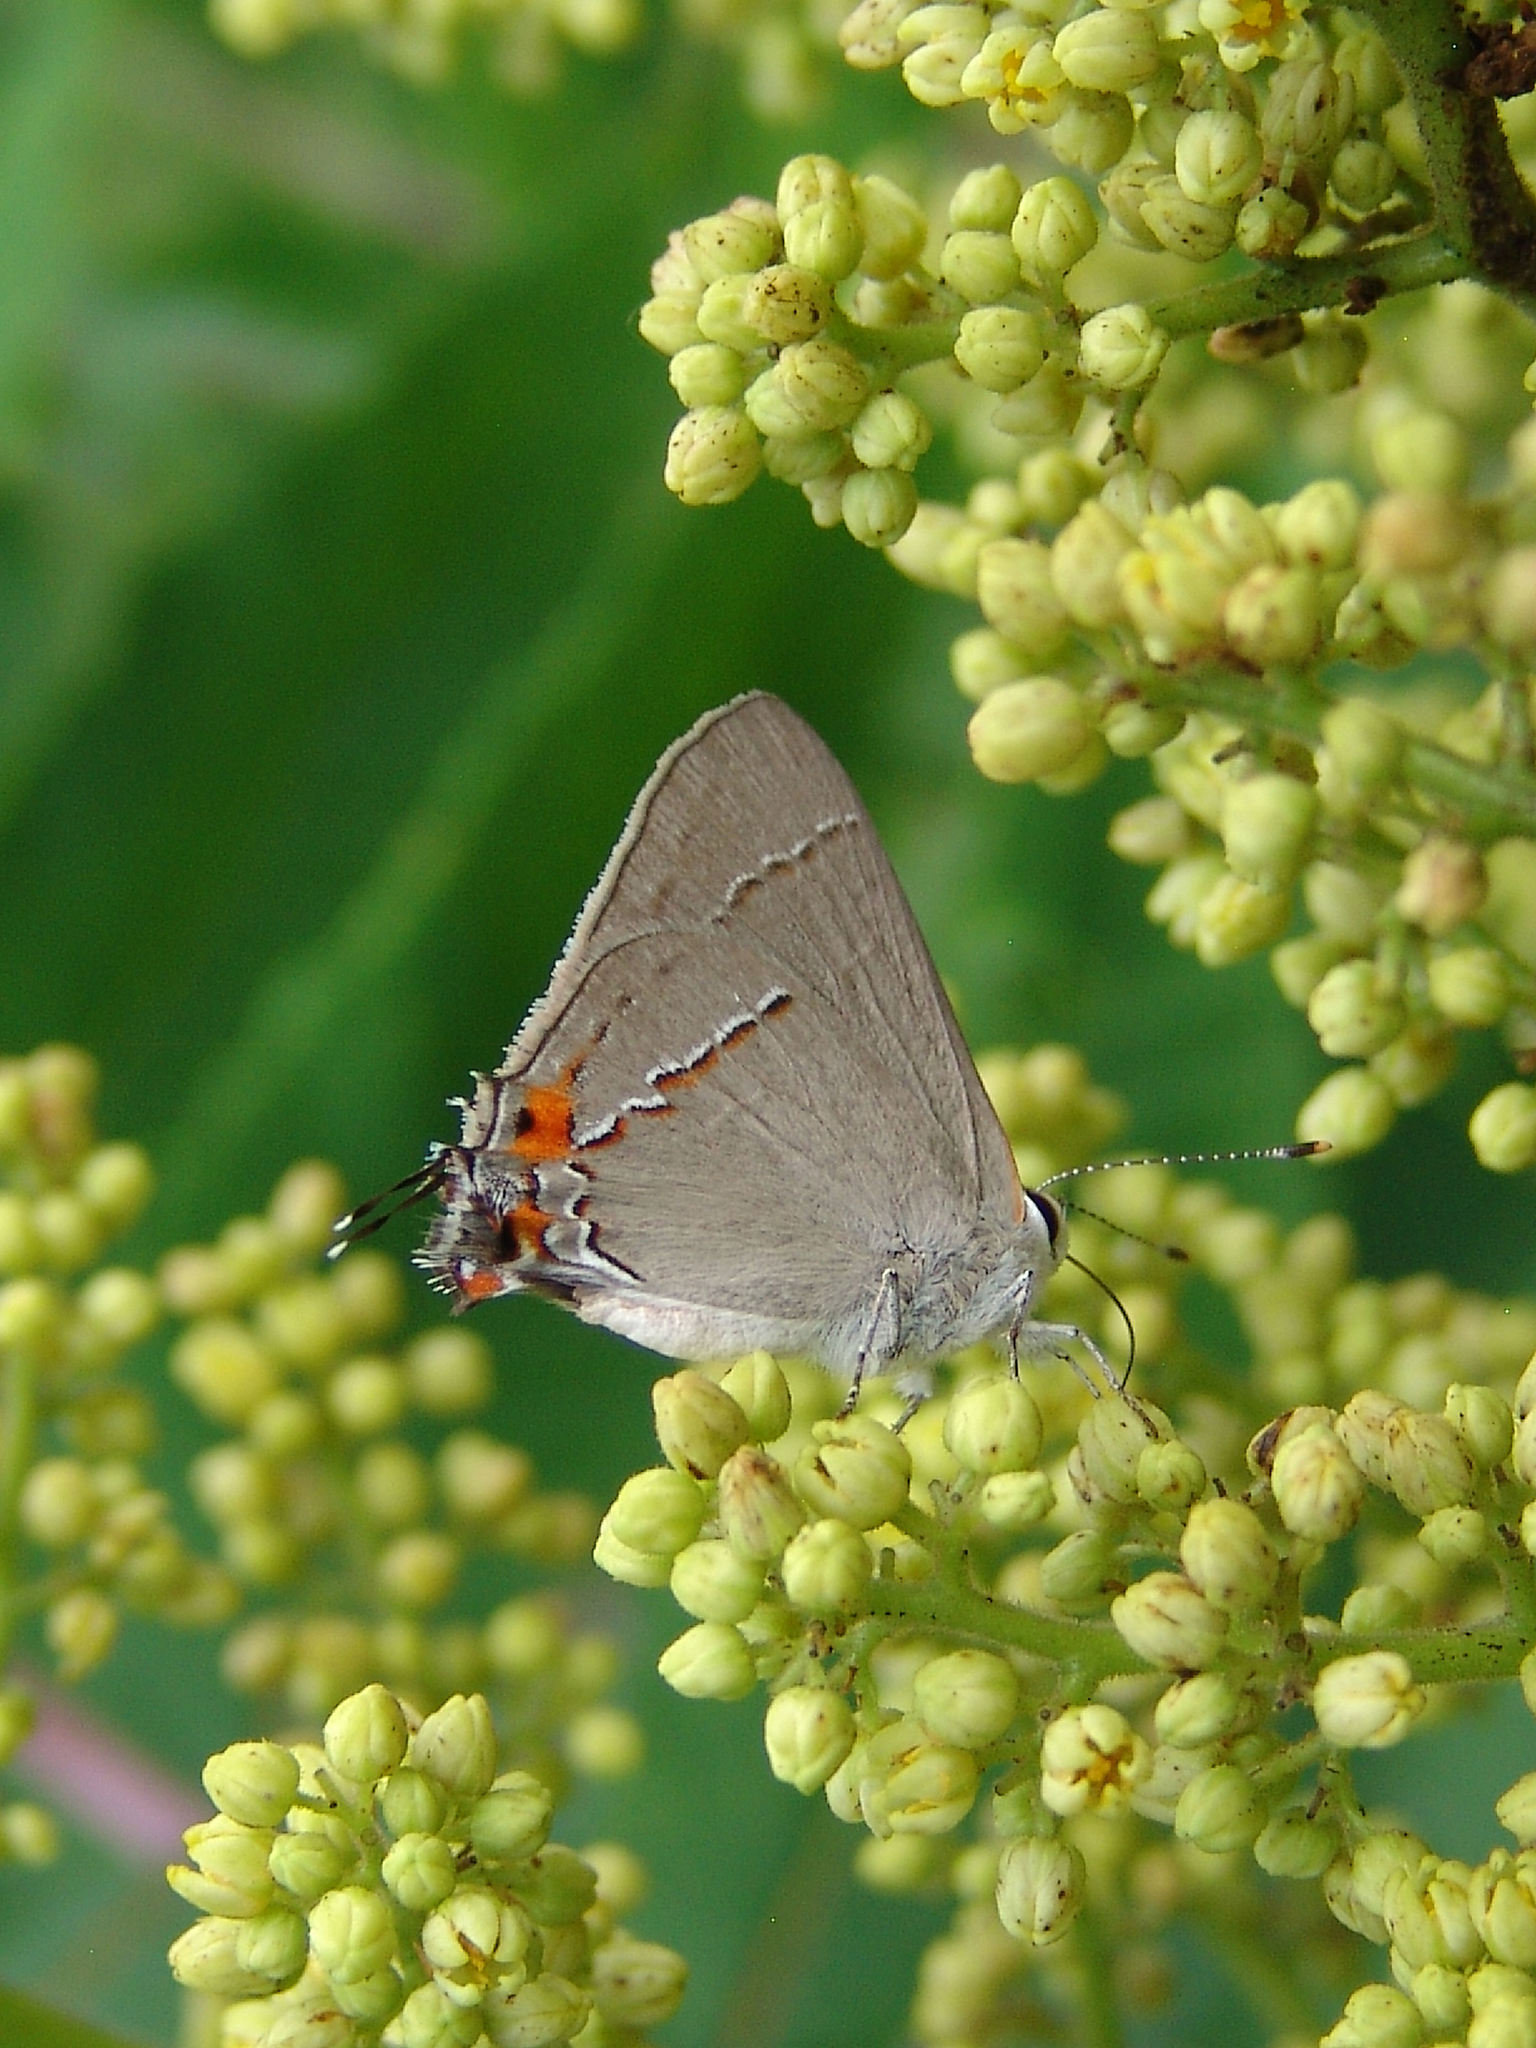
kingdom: Animalia
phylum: Arthropoda
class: Insecta
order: Lepidoptera
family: Lycaenidae
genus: Strymon
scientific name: Strymon melinus
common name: Gray hairstreak
